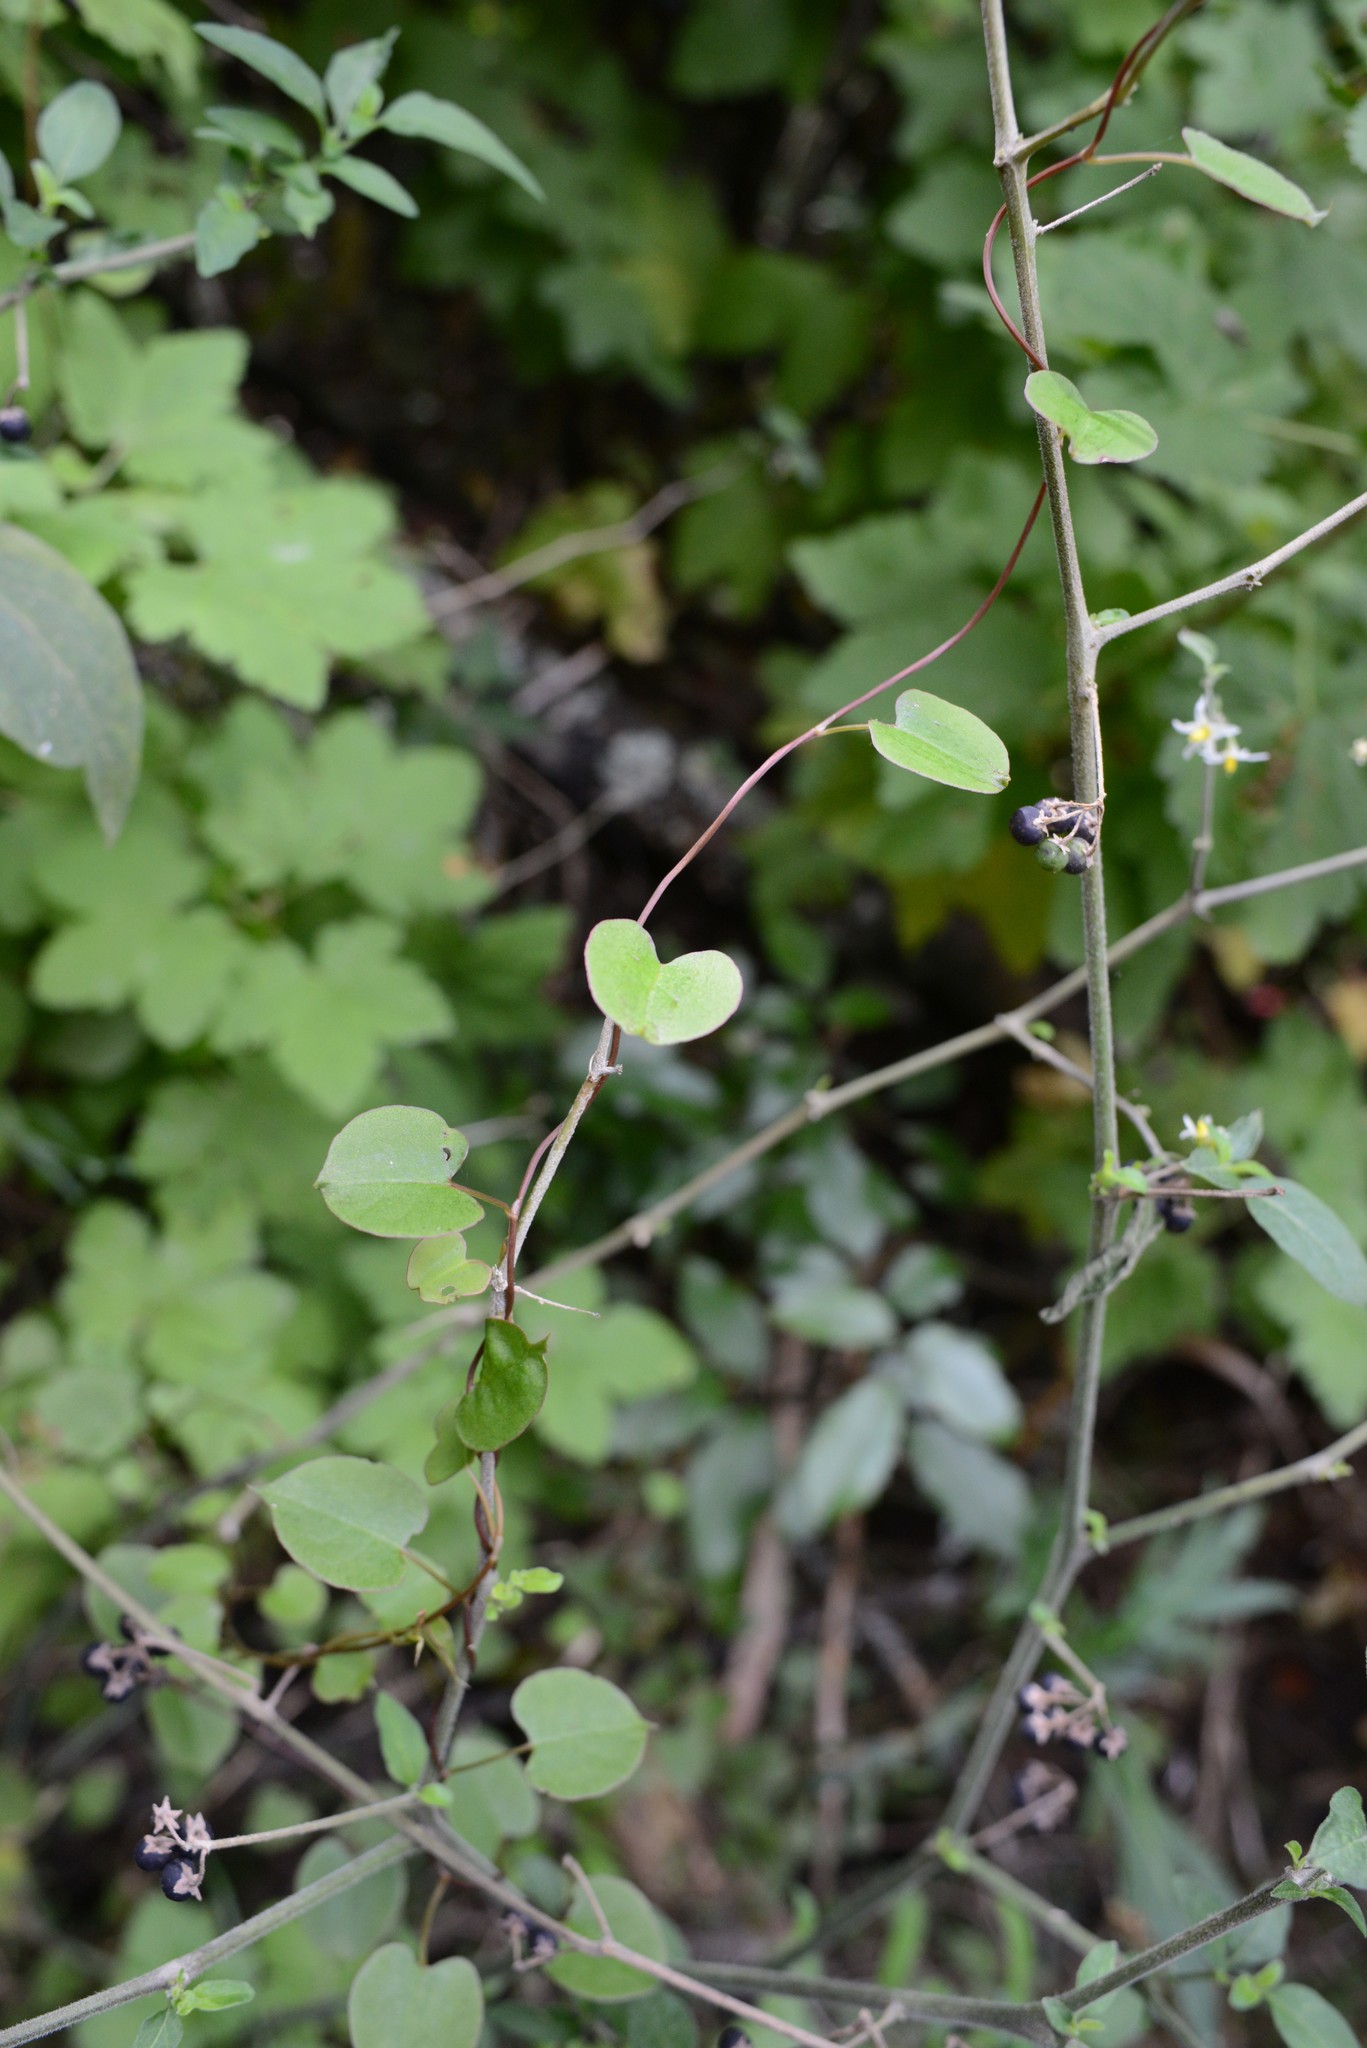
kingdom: Plantae
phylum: Tracheophyta
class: Magnoliopsida
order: Caryophyllales
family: Polygonaceae
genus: Muehlenbeckia
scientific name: Muehlenbeckia australis
